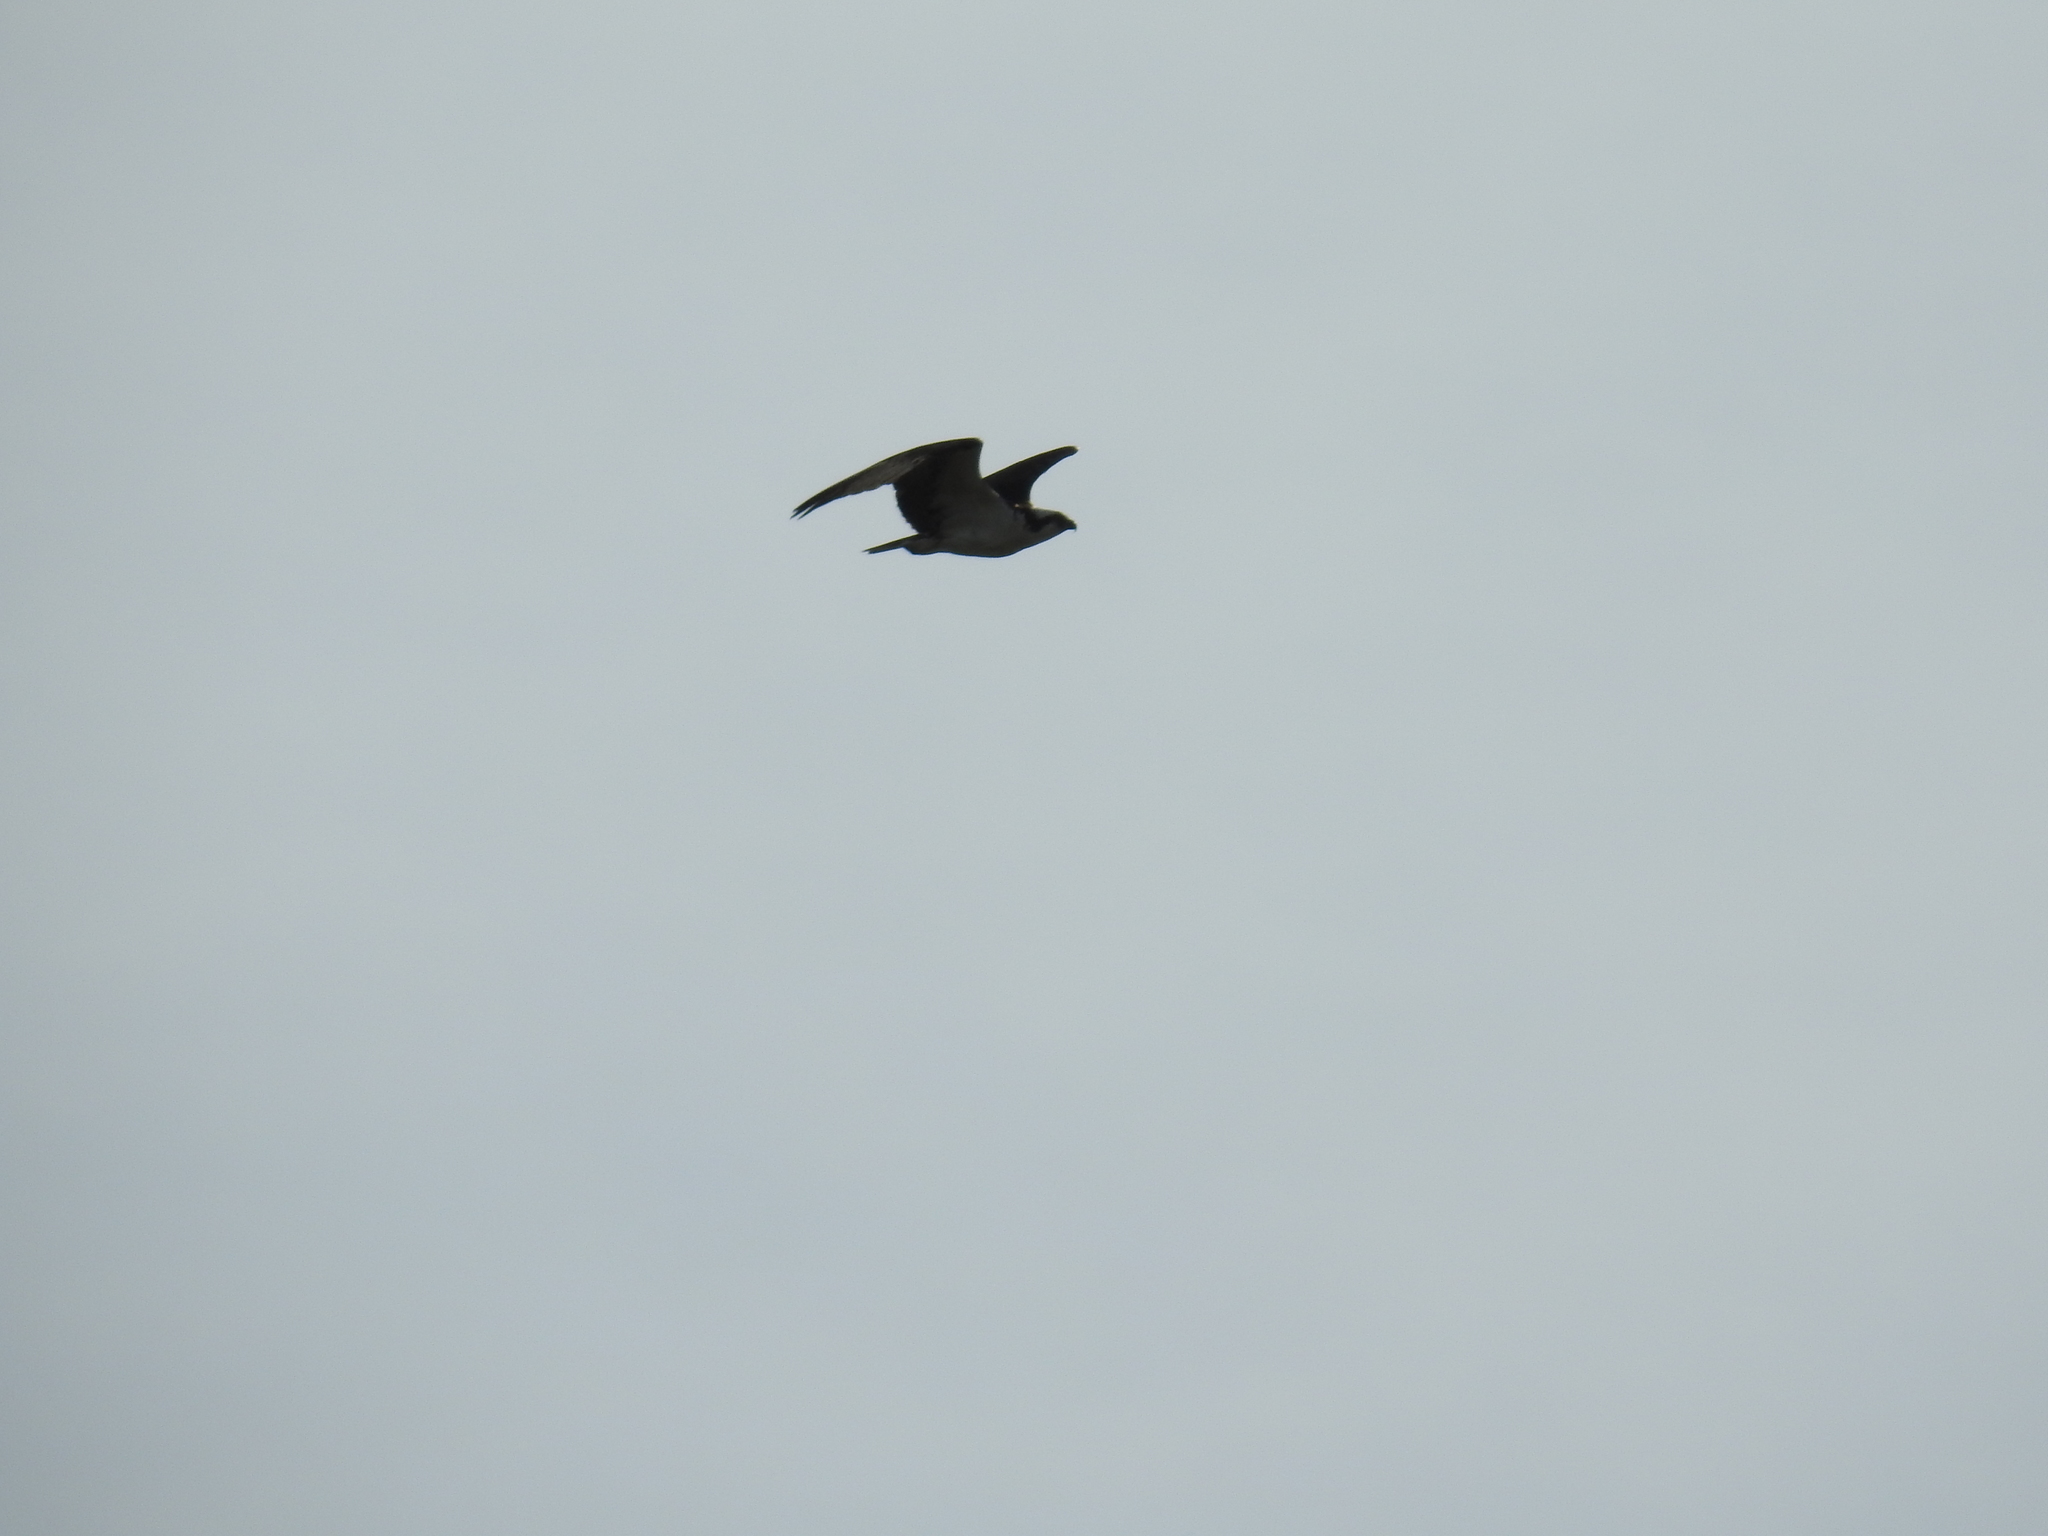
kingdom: Animalia
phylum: Chordata
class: Aves
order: Accipitriformes
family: Pandionidae
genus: Pandion
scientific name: Pandion haliaetus
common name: Osprey
